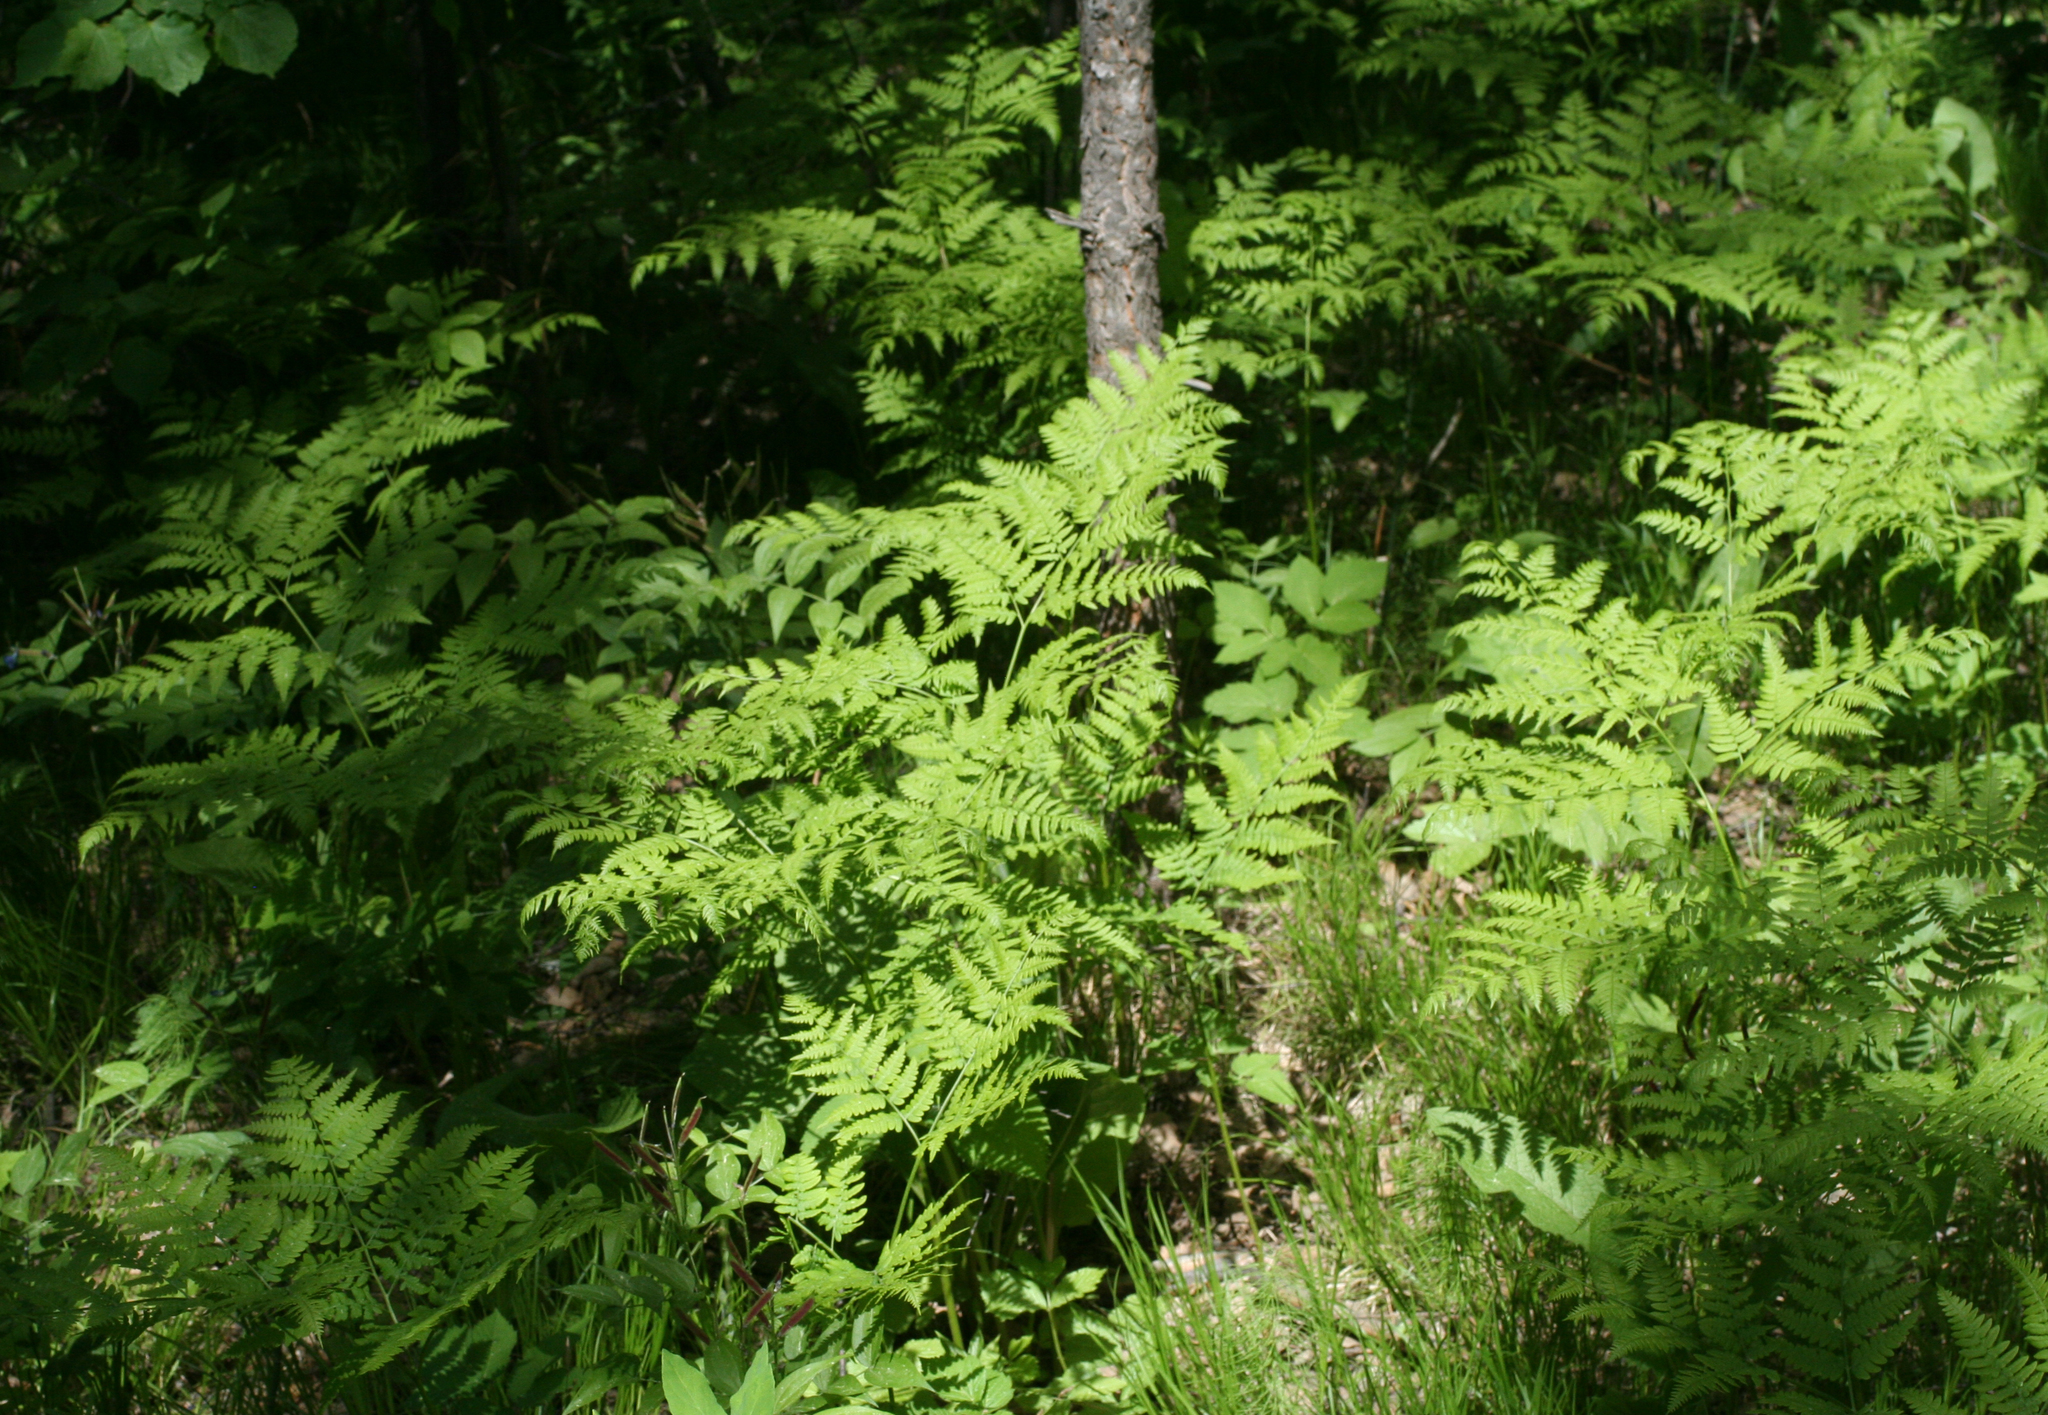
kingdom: Plantae
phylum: Tracheophyta
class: Polypodiopsida
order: Polypodiales
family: Dennstaedtiaceae
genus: Pteridium
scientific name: Pteridium aquilinum
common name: Bracken
